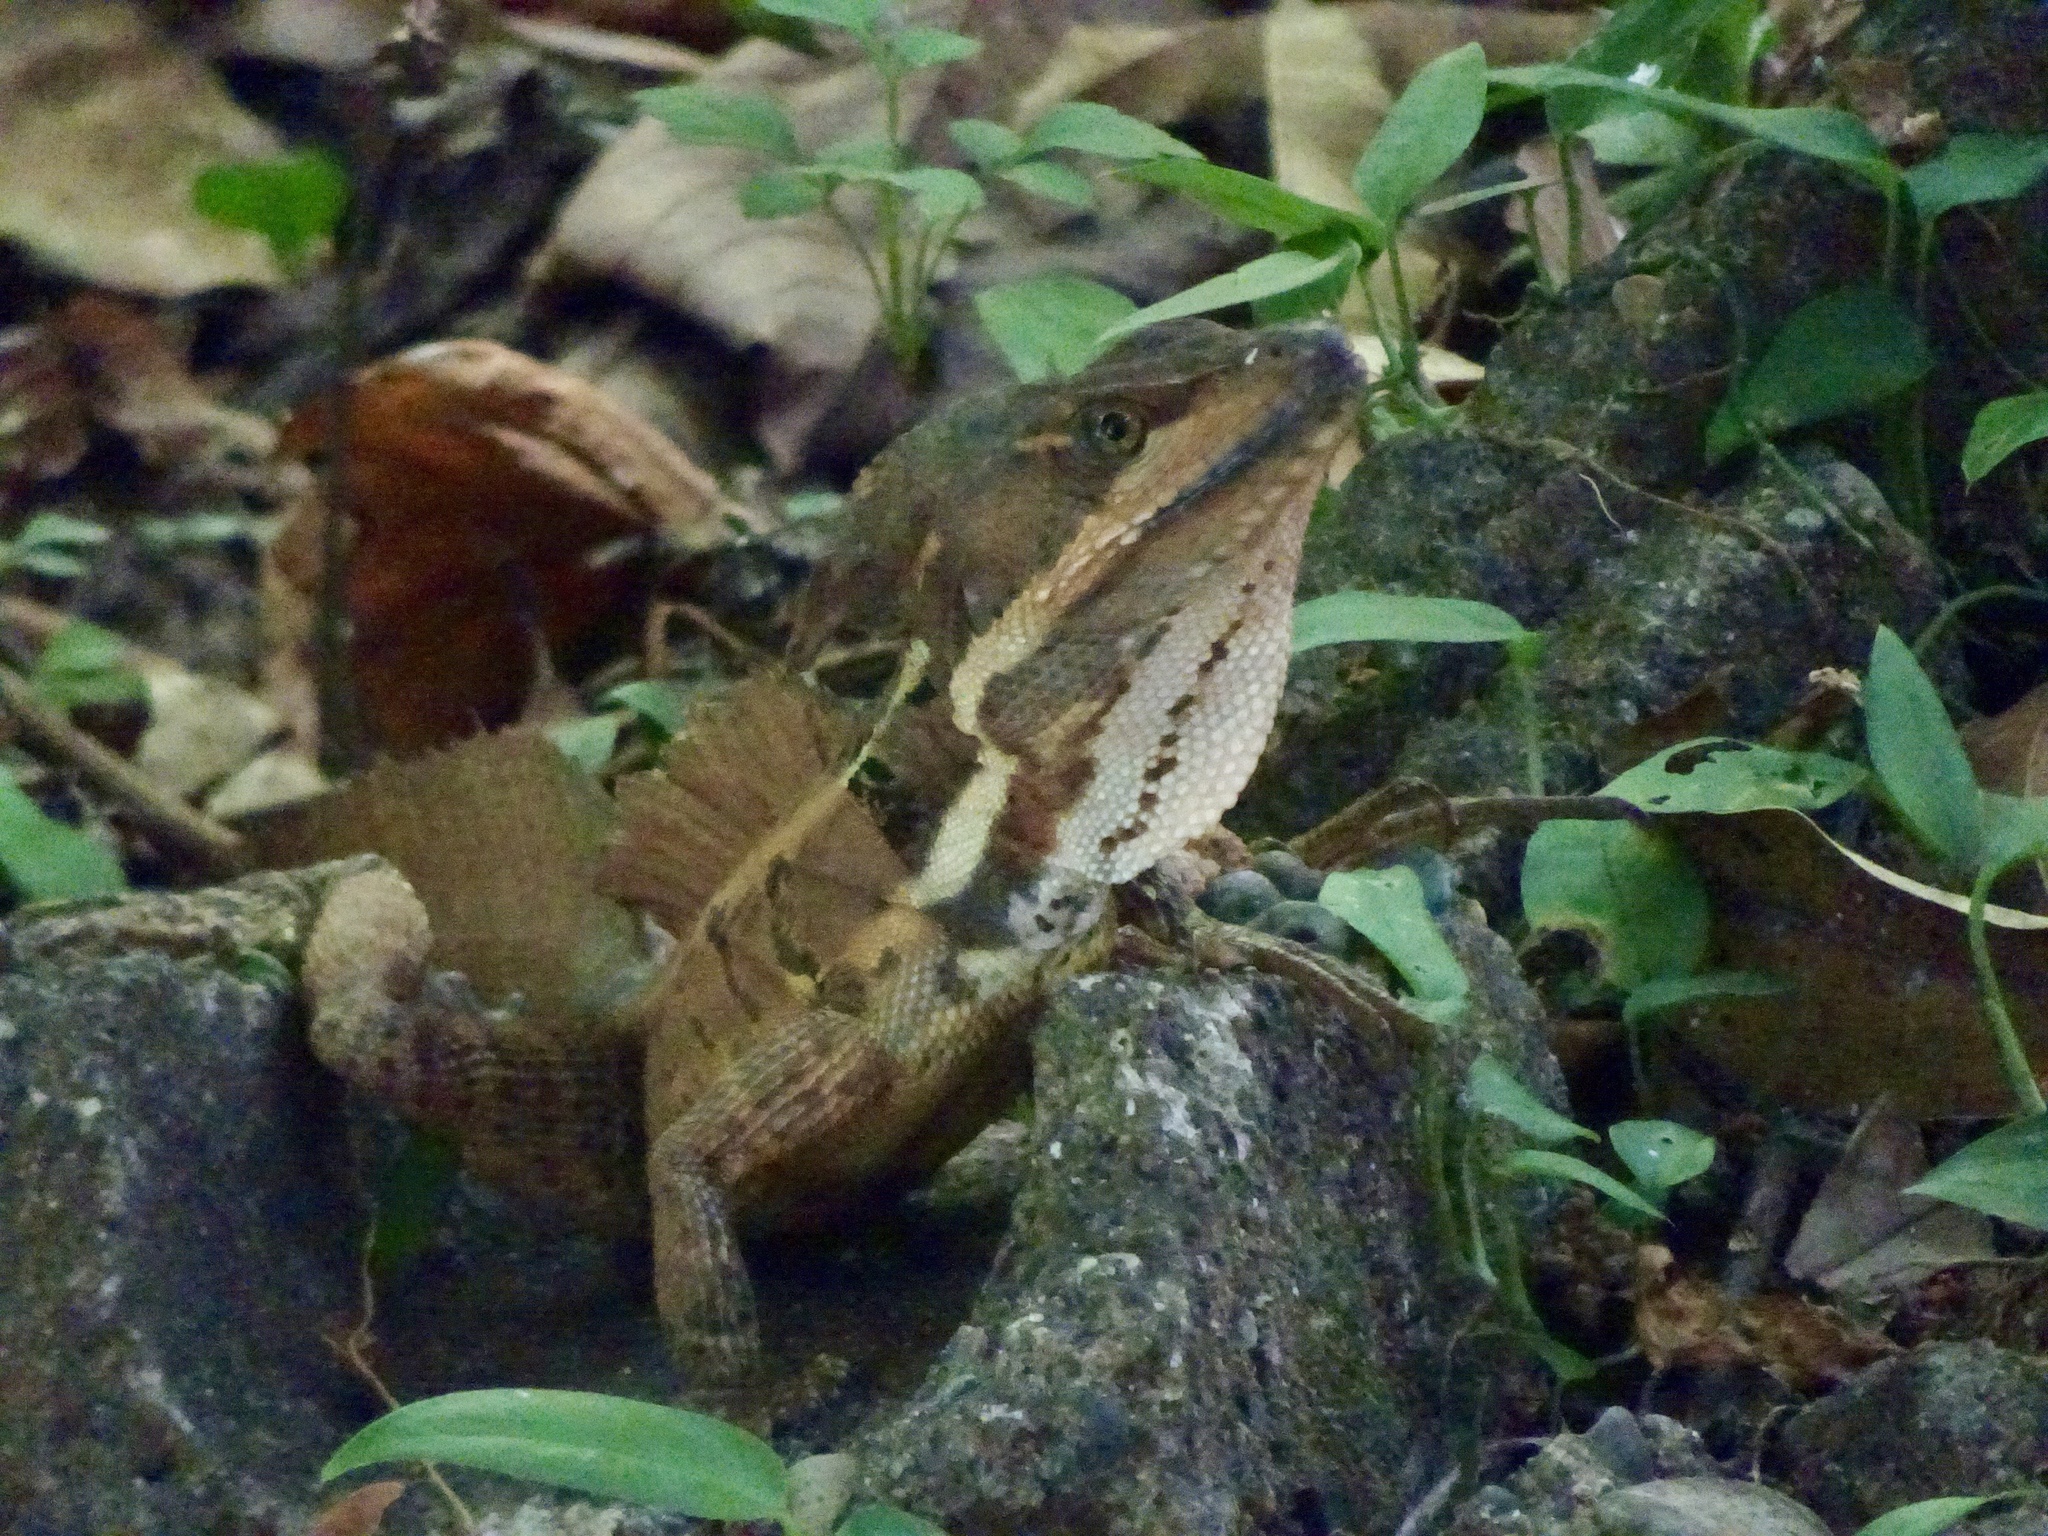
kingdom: Animalia
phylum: Chordata
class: Squamata
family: Corytophanidae
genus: Basiliscus
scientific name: Basiliscus basiliscus
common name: Common basilisk
